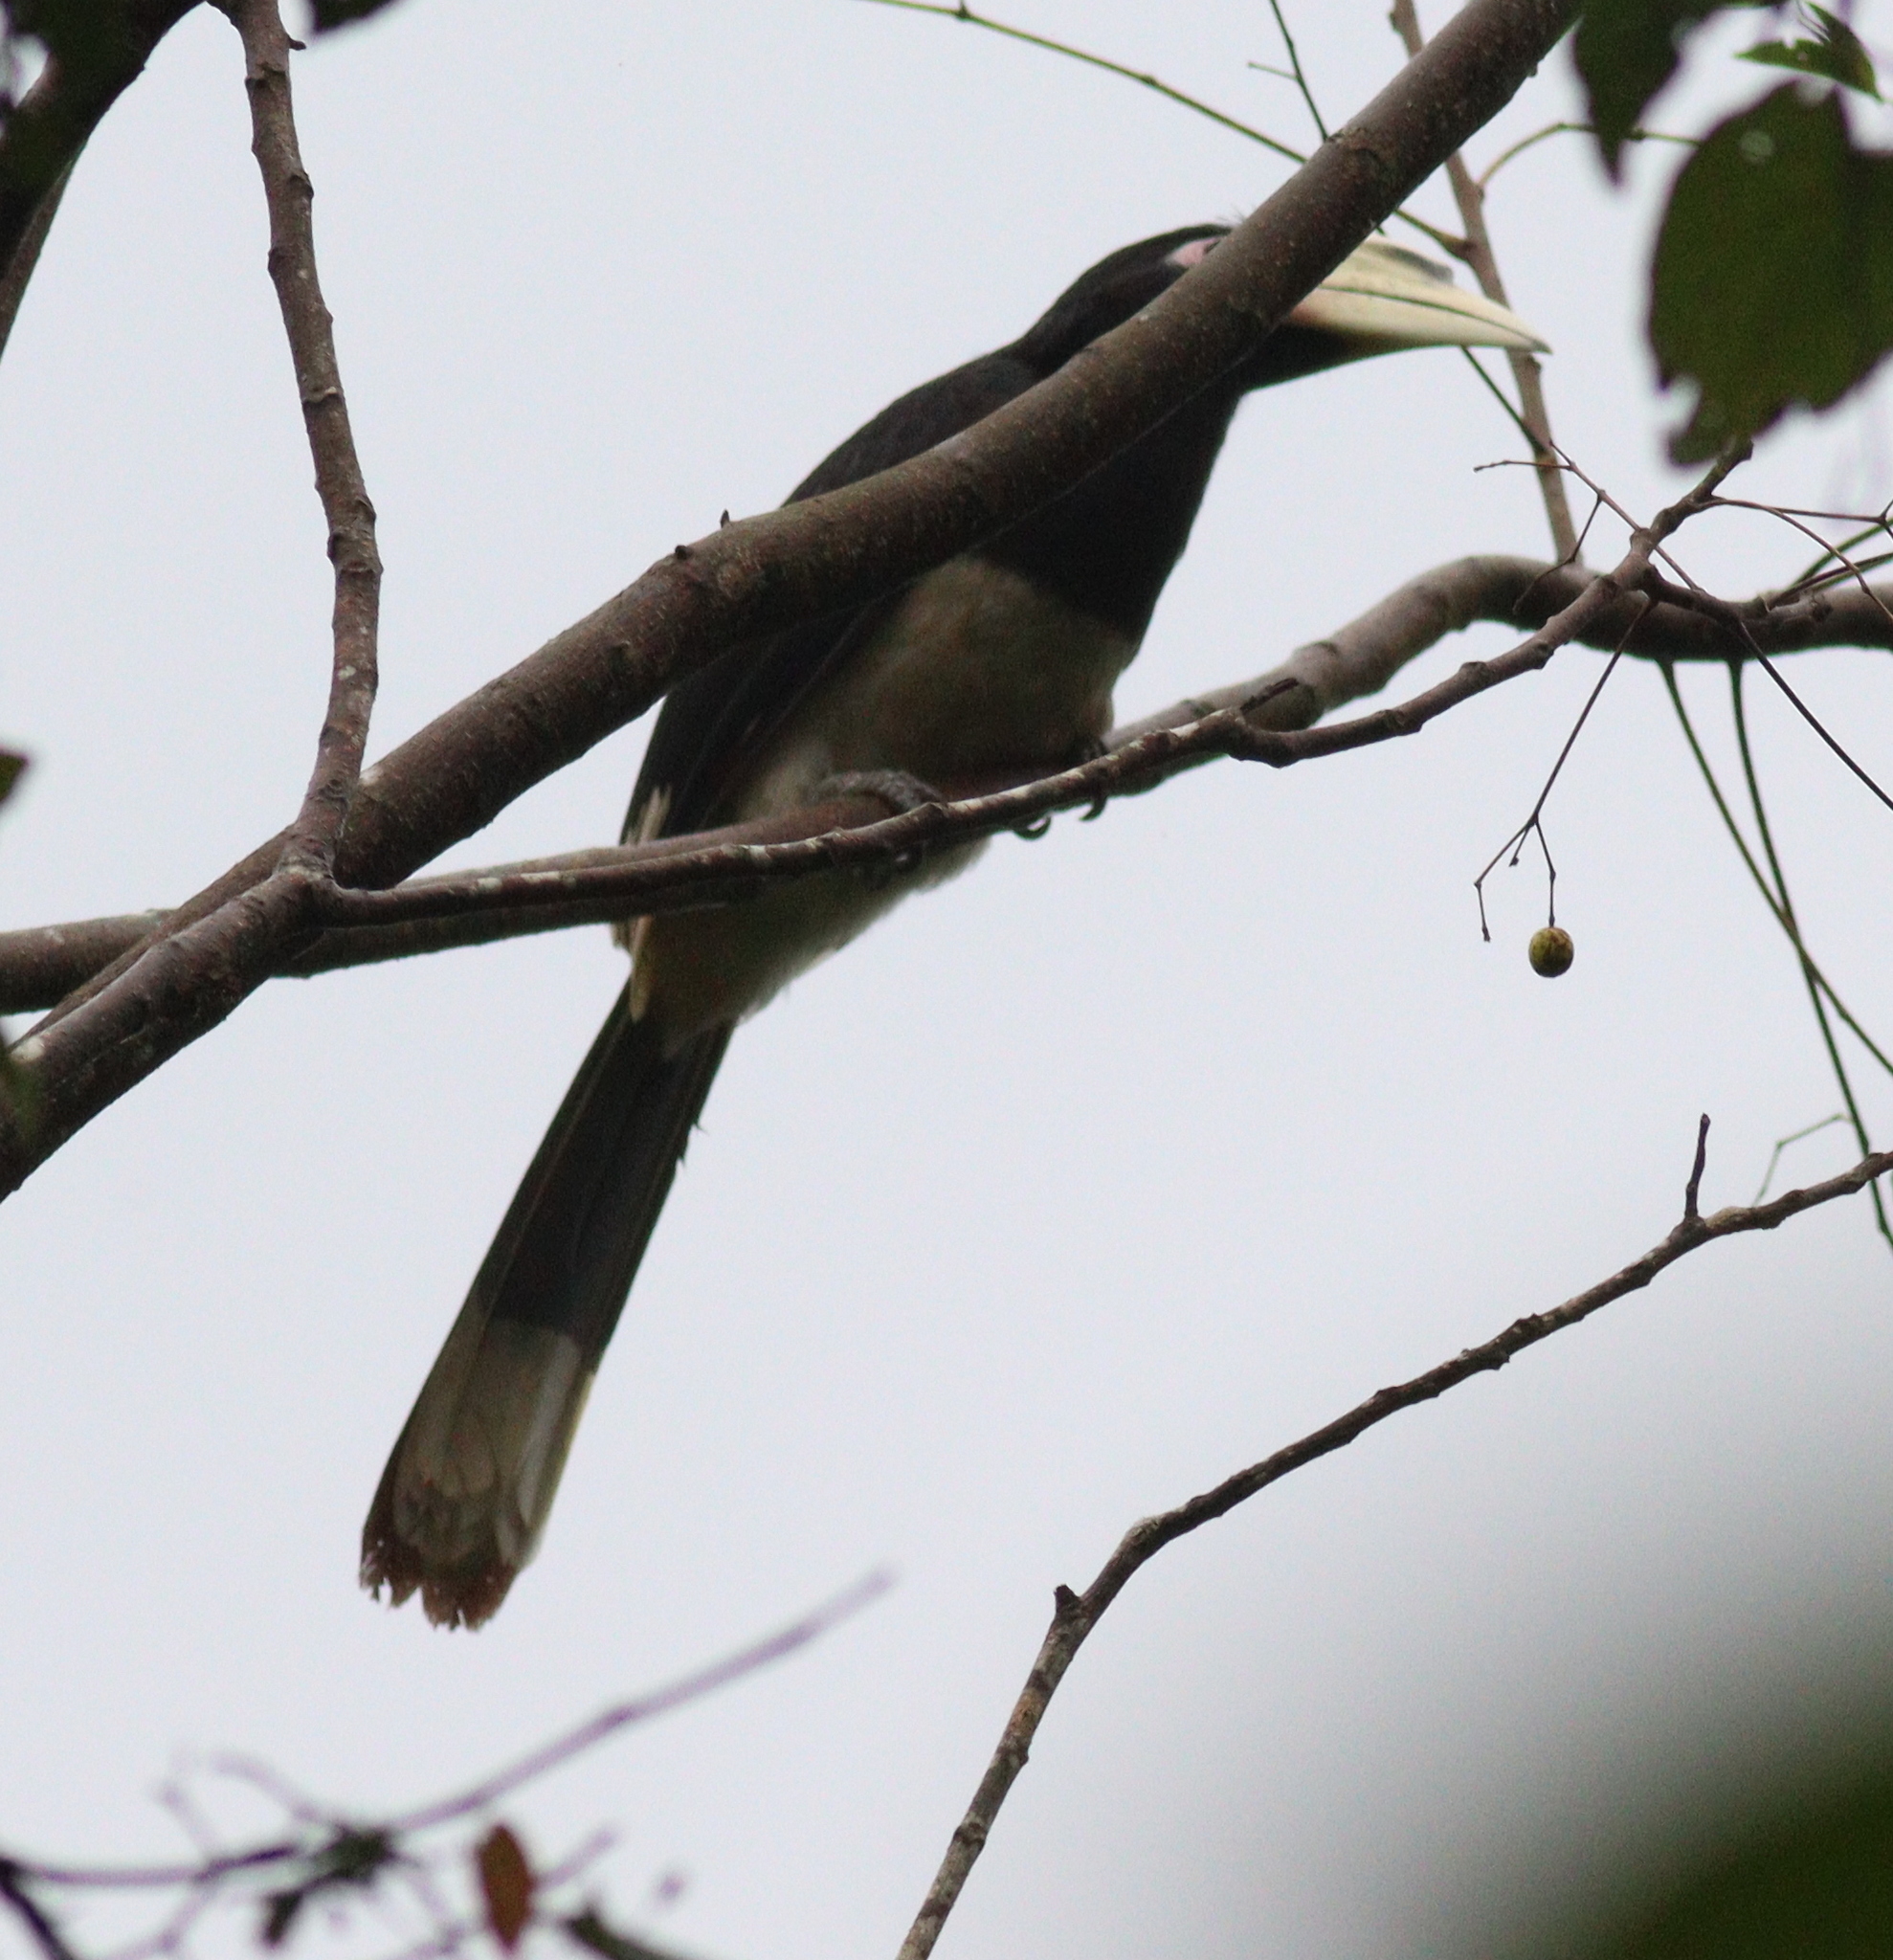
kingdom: Animalia
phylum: Chordata
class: Aves
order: Bucerotiformes
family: Bucerotidae
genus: Anthracoceros
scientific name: Anthracoceros albirostris
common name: Oriental pied-hornbill
